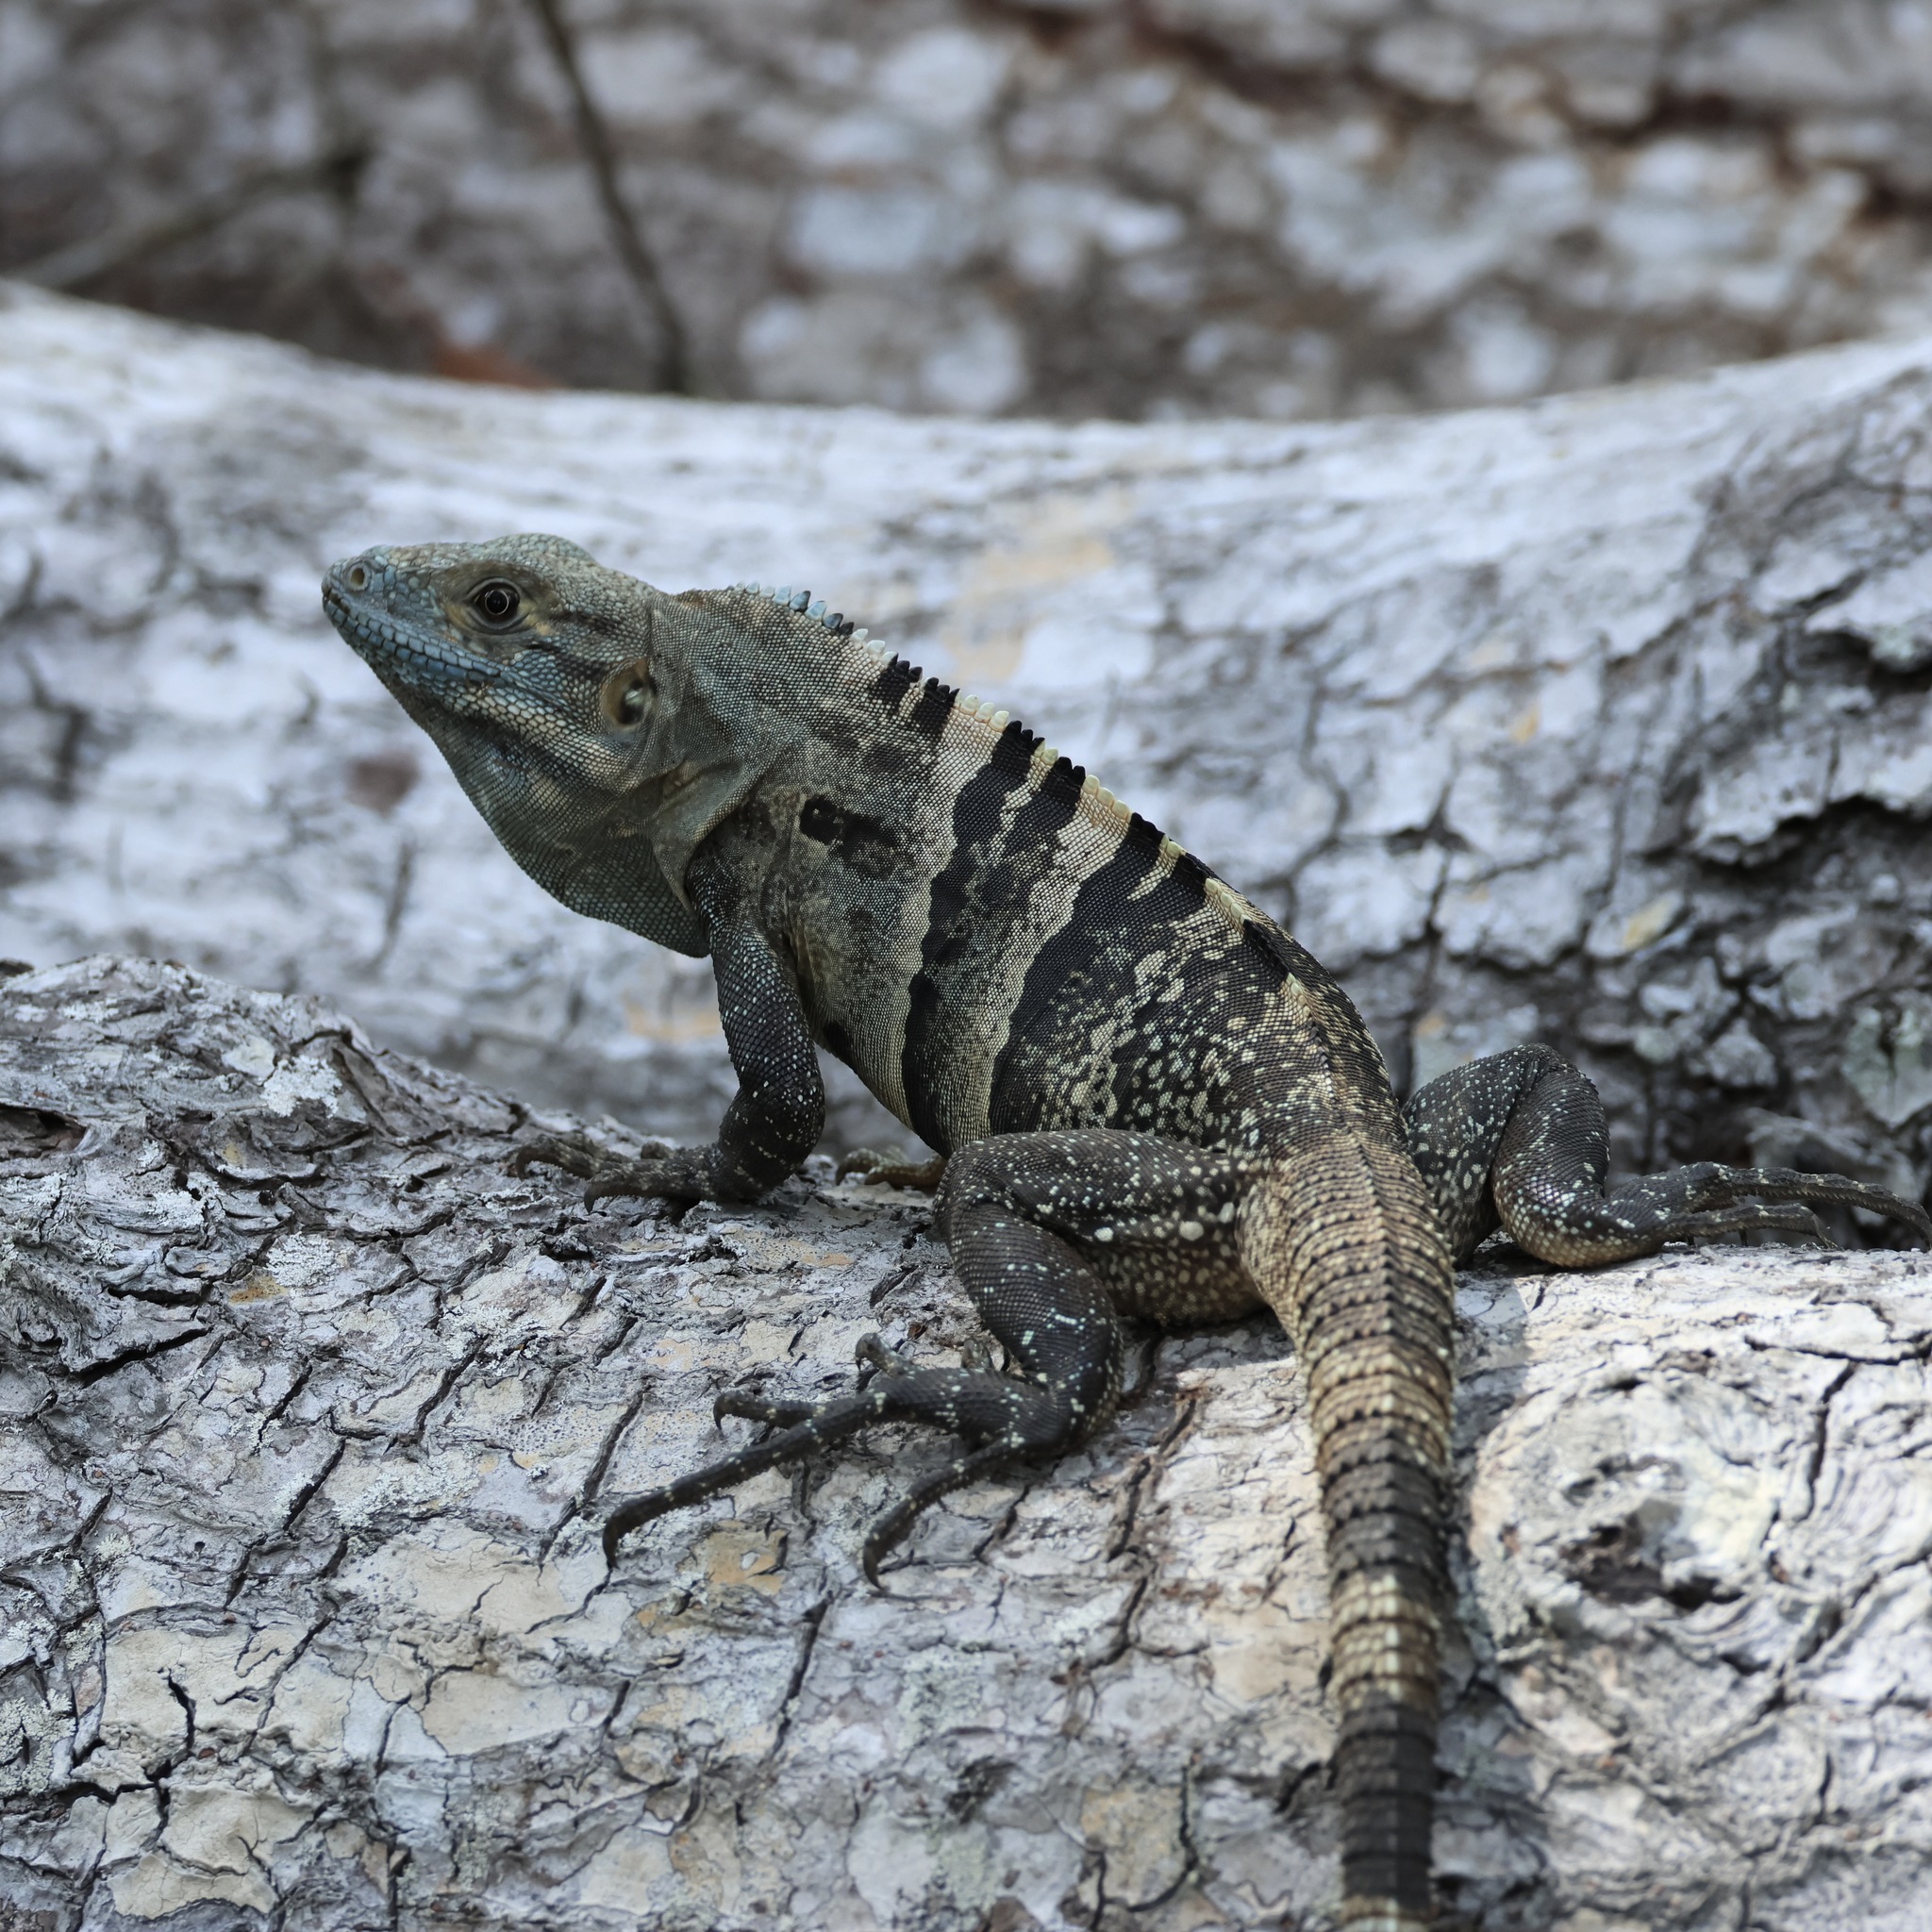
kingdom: Animalia
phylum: Chordata
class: Squamata
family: Iguanidae
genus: Ctenosaura
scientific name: Ctenosaura similis
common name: Black spiny-tailed iguana
